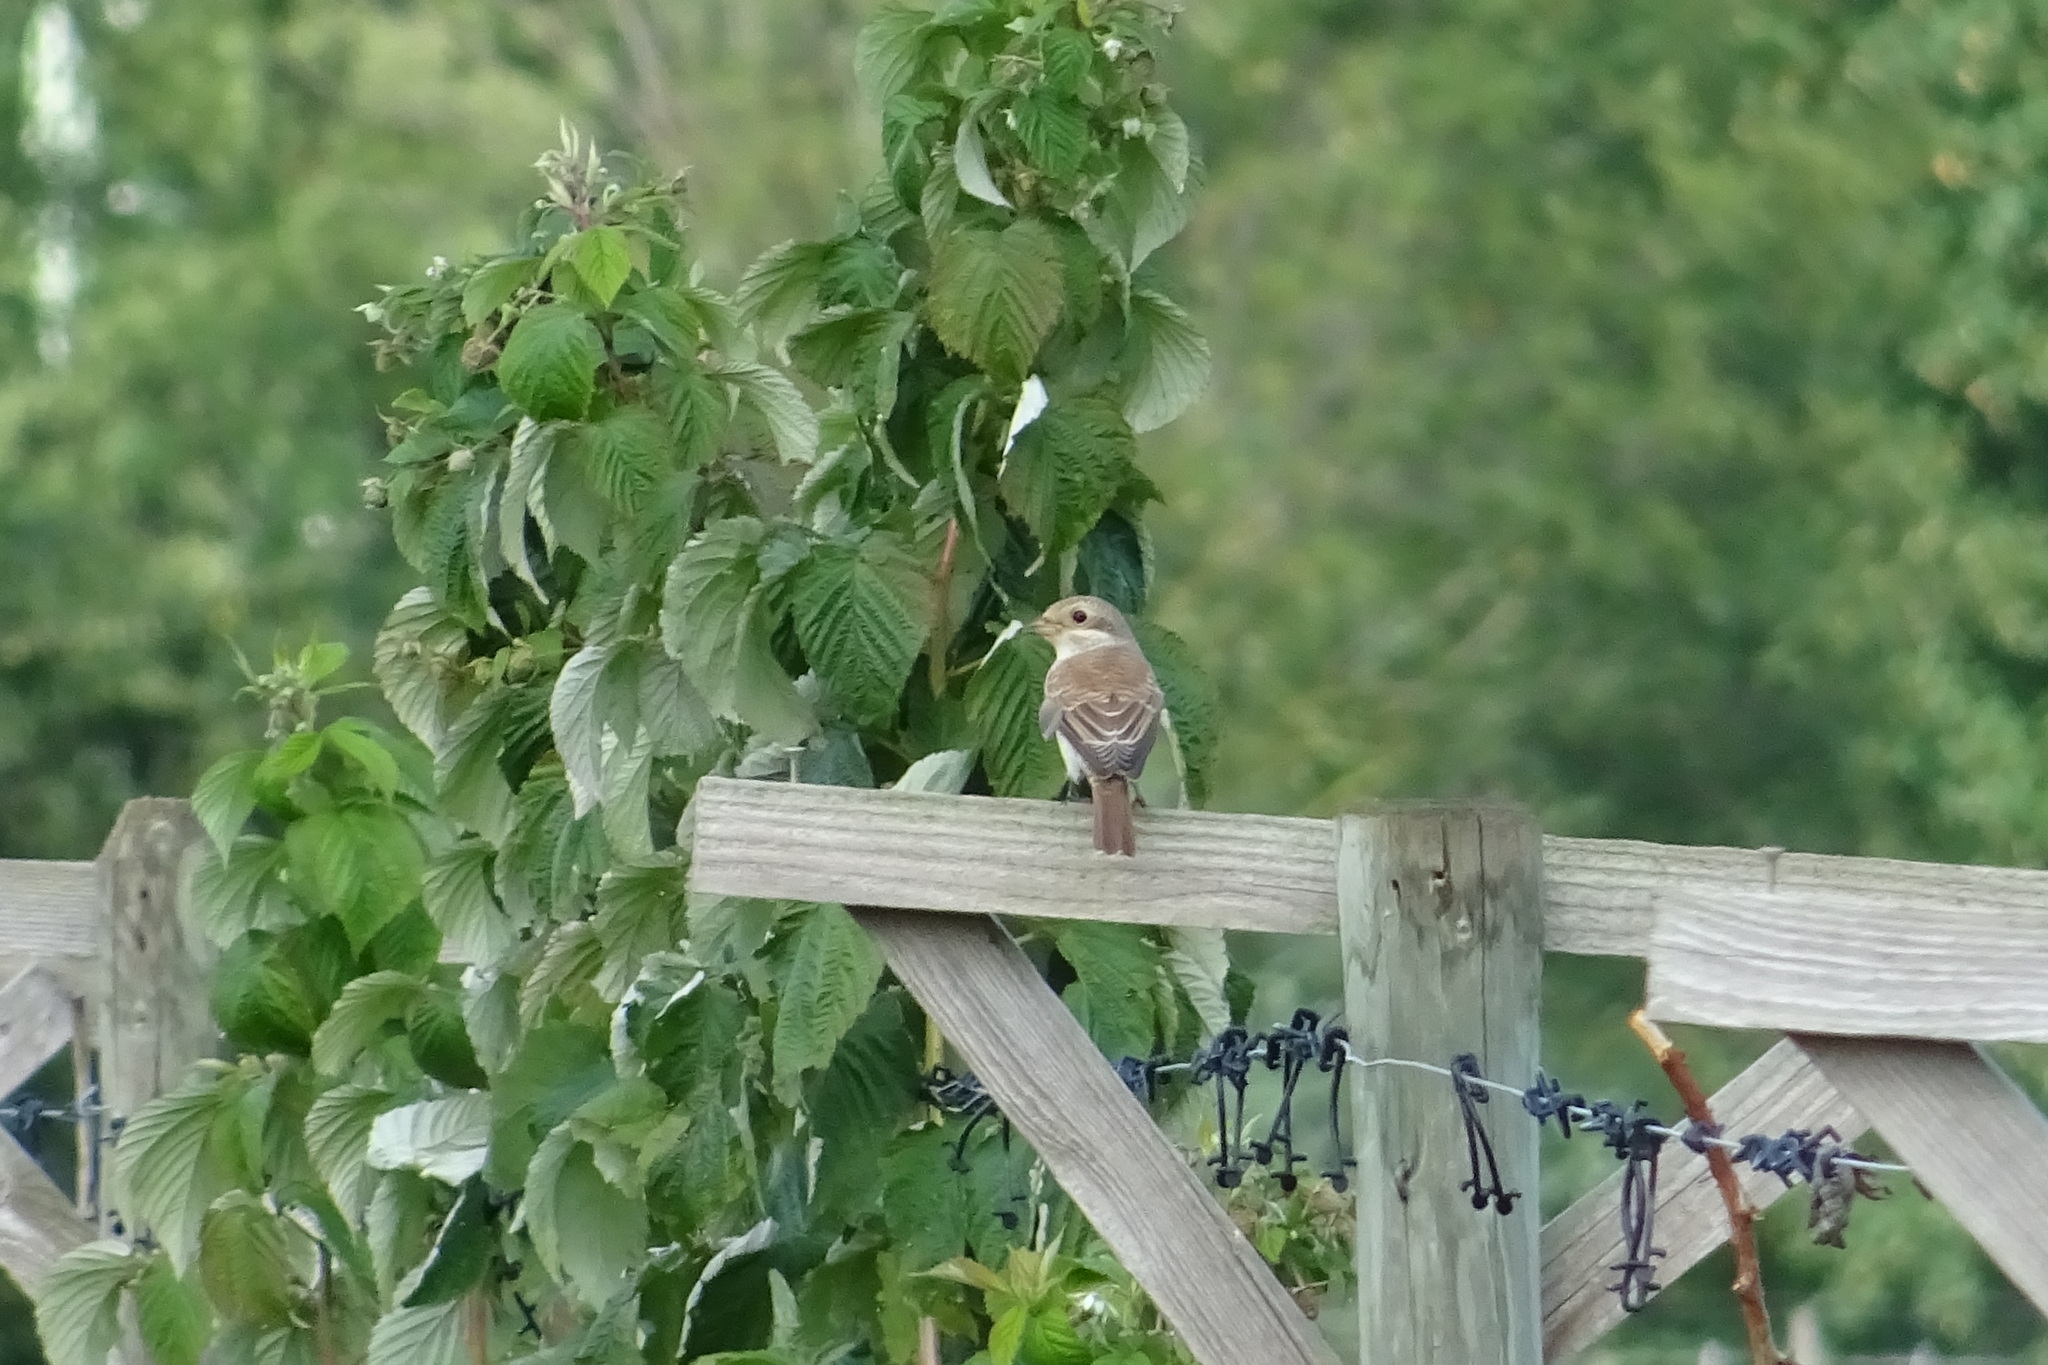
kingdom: Animalia
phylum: Chordata
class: Aves
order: Passeriformes
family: Laniidae
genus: Lanius
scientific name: Lanius collurio
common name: Red-backed shrike
